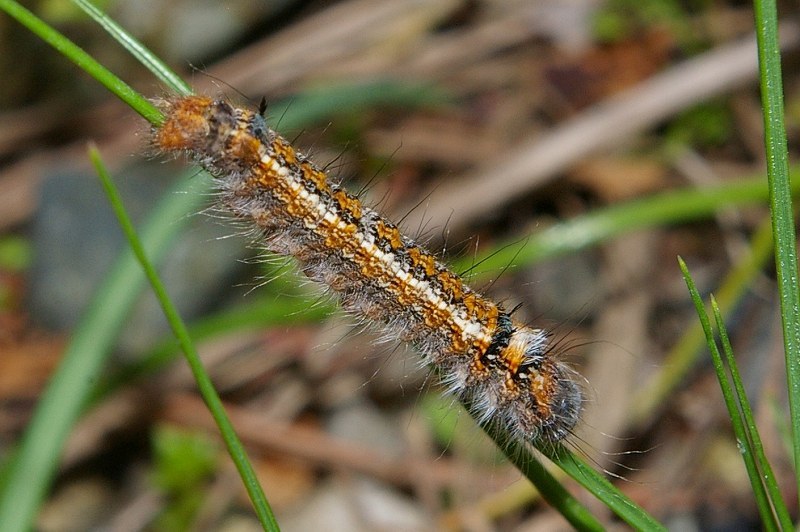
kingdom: Animalia
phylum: Arthropoda
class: Insecta
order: Lepidoptera
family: Lasiocampidae
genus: Dendrolimus
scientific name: Dendrolimus spectabilis
